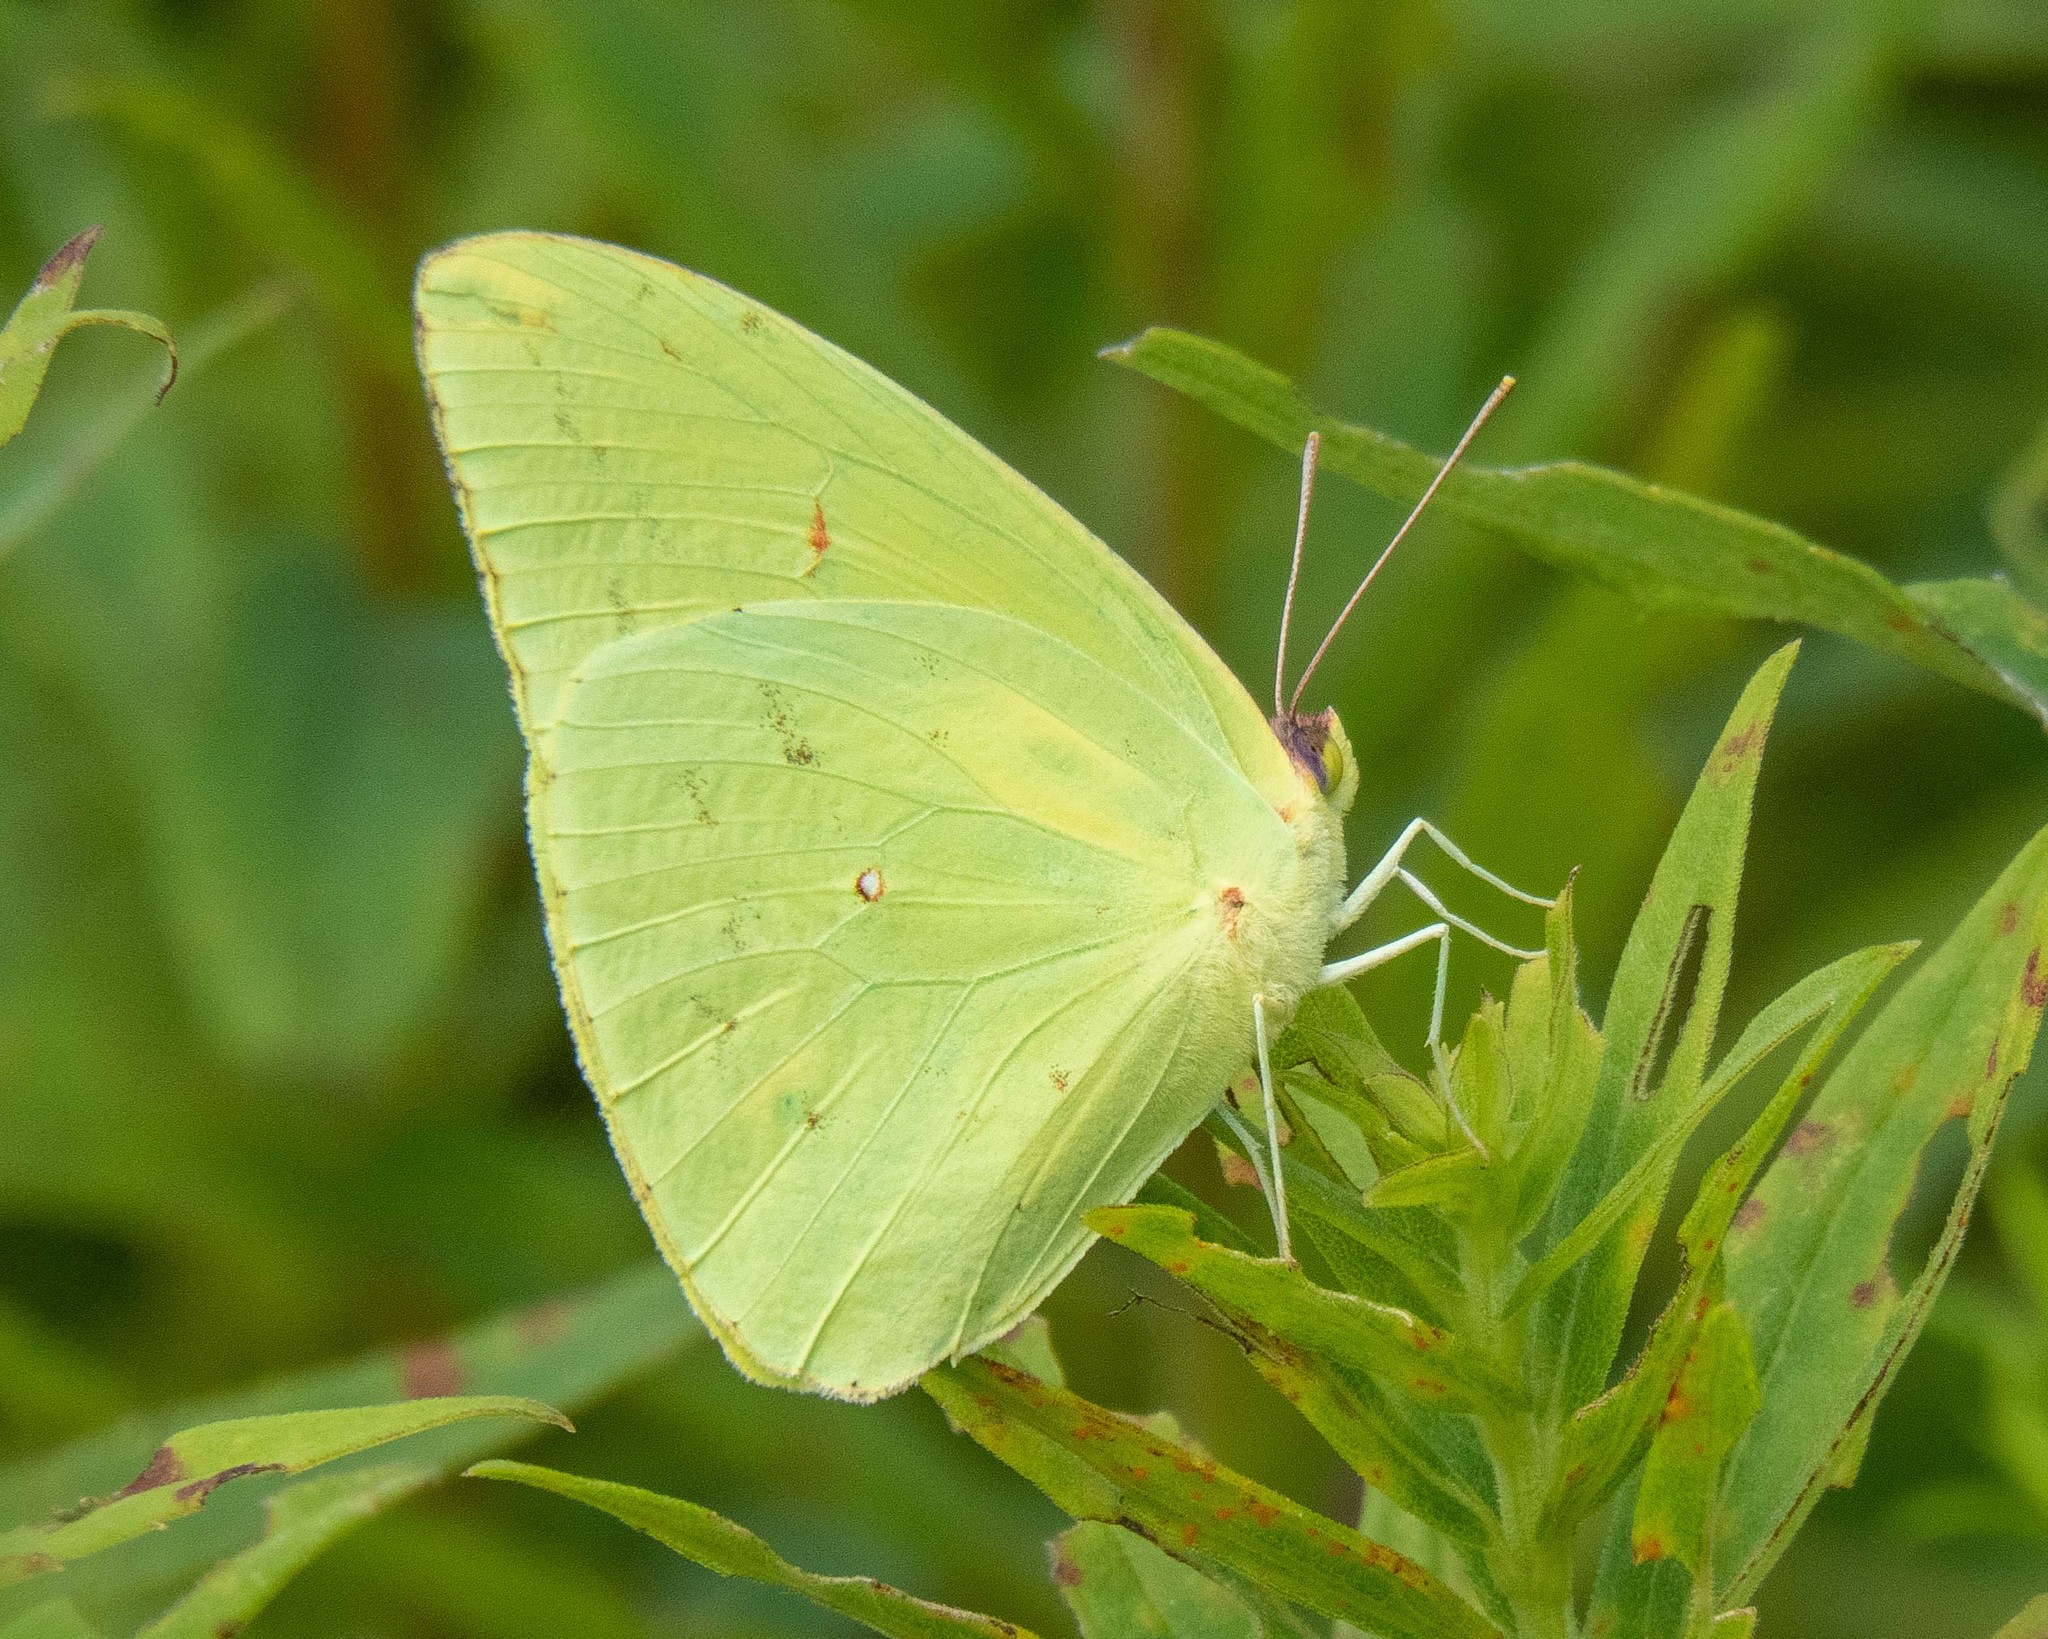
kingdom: Animalia
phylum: Arthropoda
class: Insecta
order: Lepidoptera
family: Pieridae
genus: Phoebis
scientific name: Phoebis sennae
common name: Cloudless sulphur
